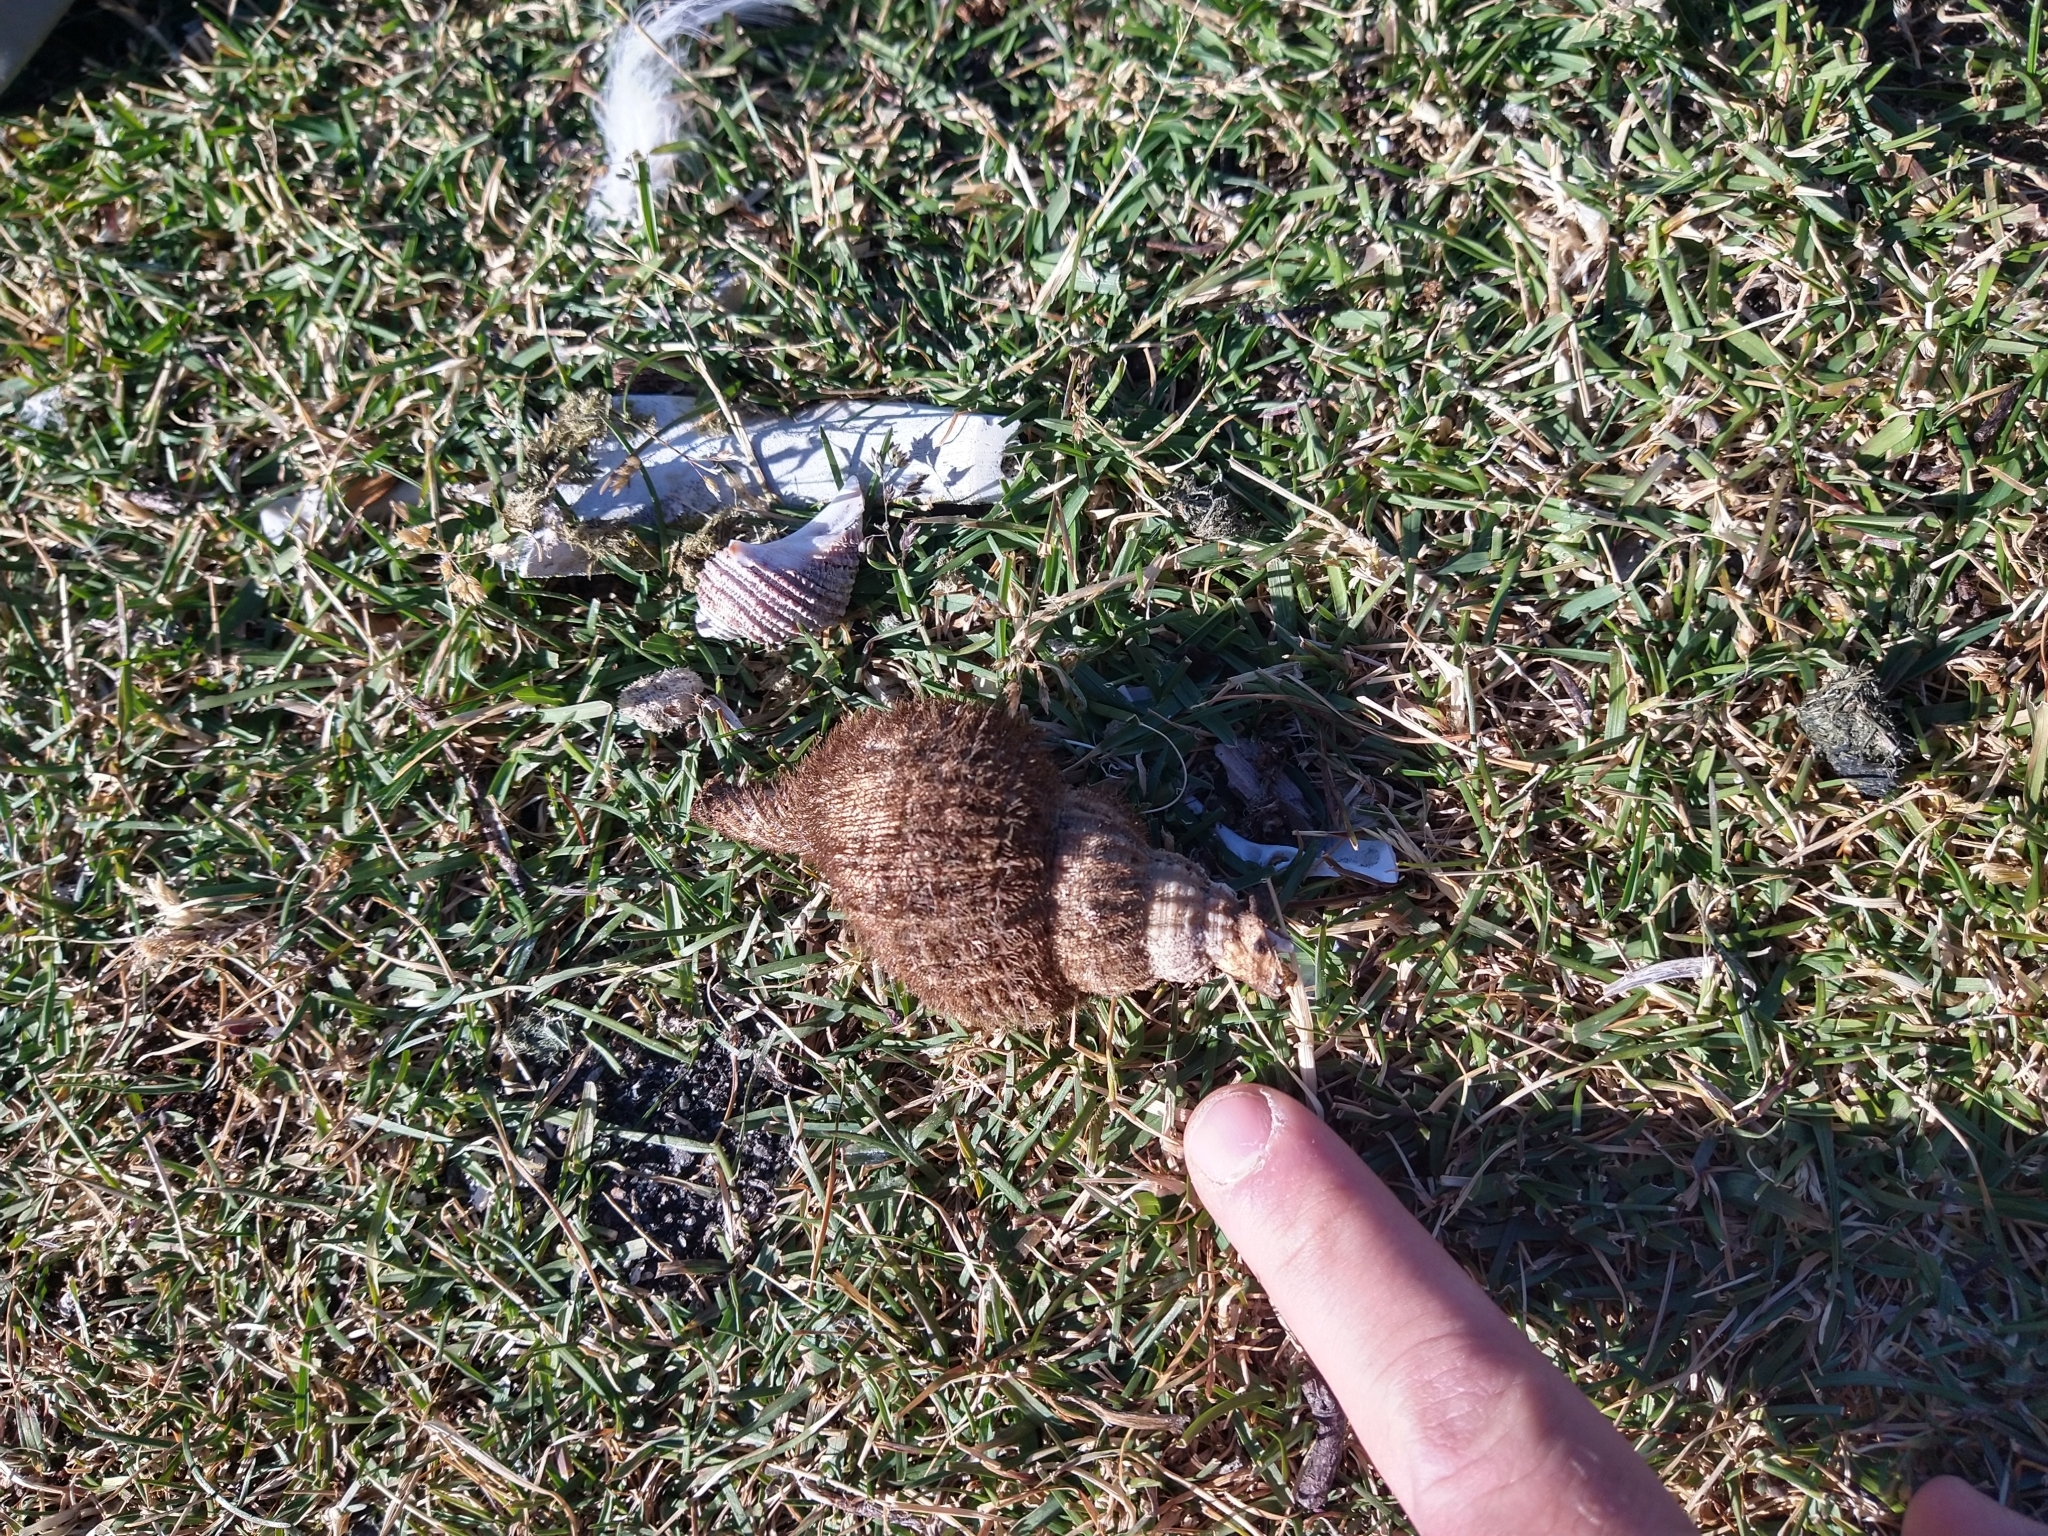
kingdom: Animalia
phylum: Mollusca
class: Gastropoda
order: Littorinimorpha
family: Cymatiidae
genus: Fusitriton
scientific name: Fusitriton magellanicus
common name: Magellanic triton
